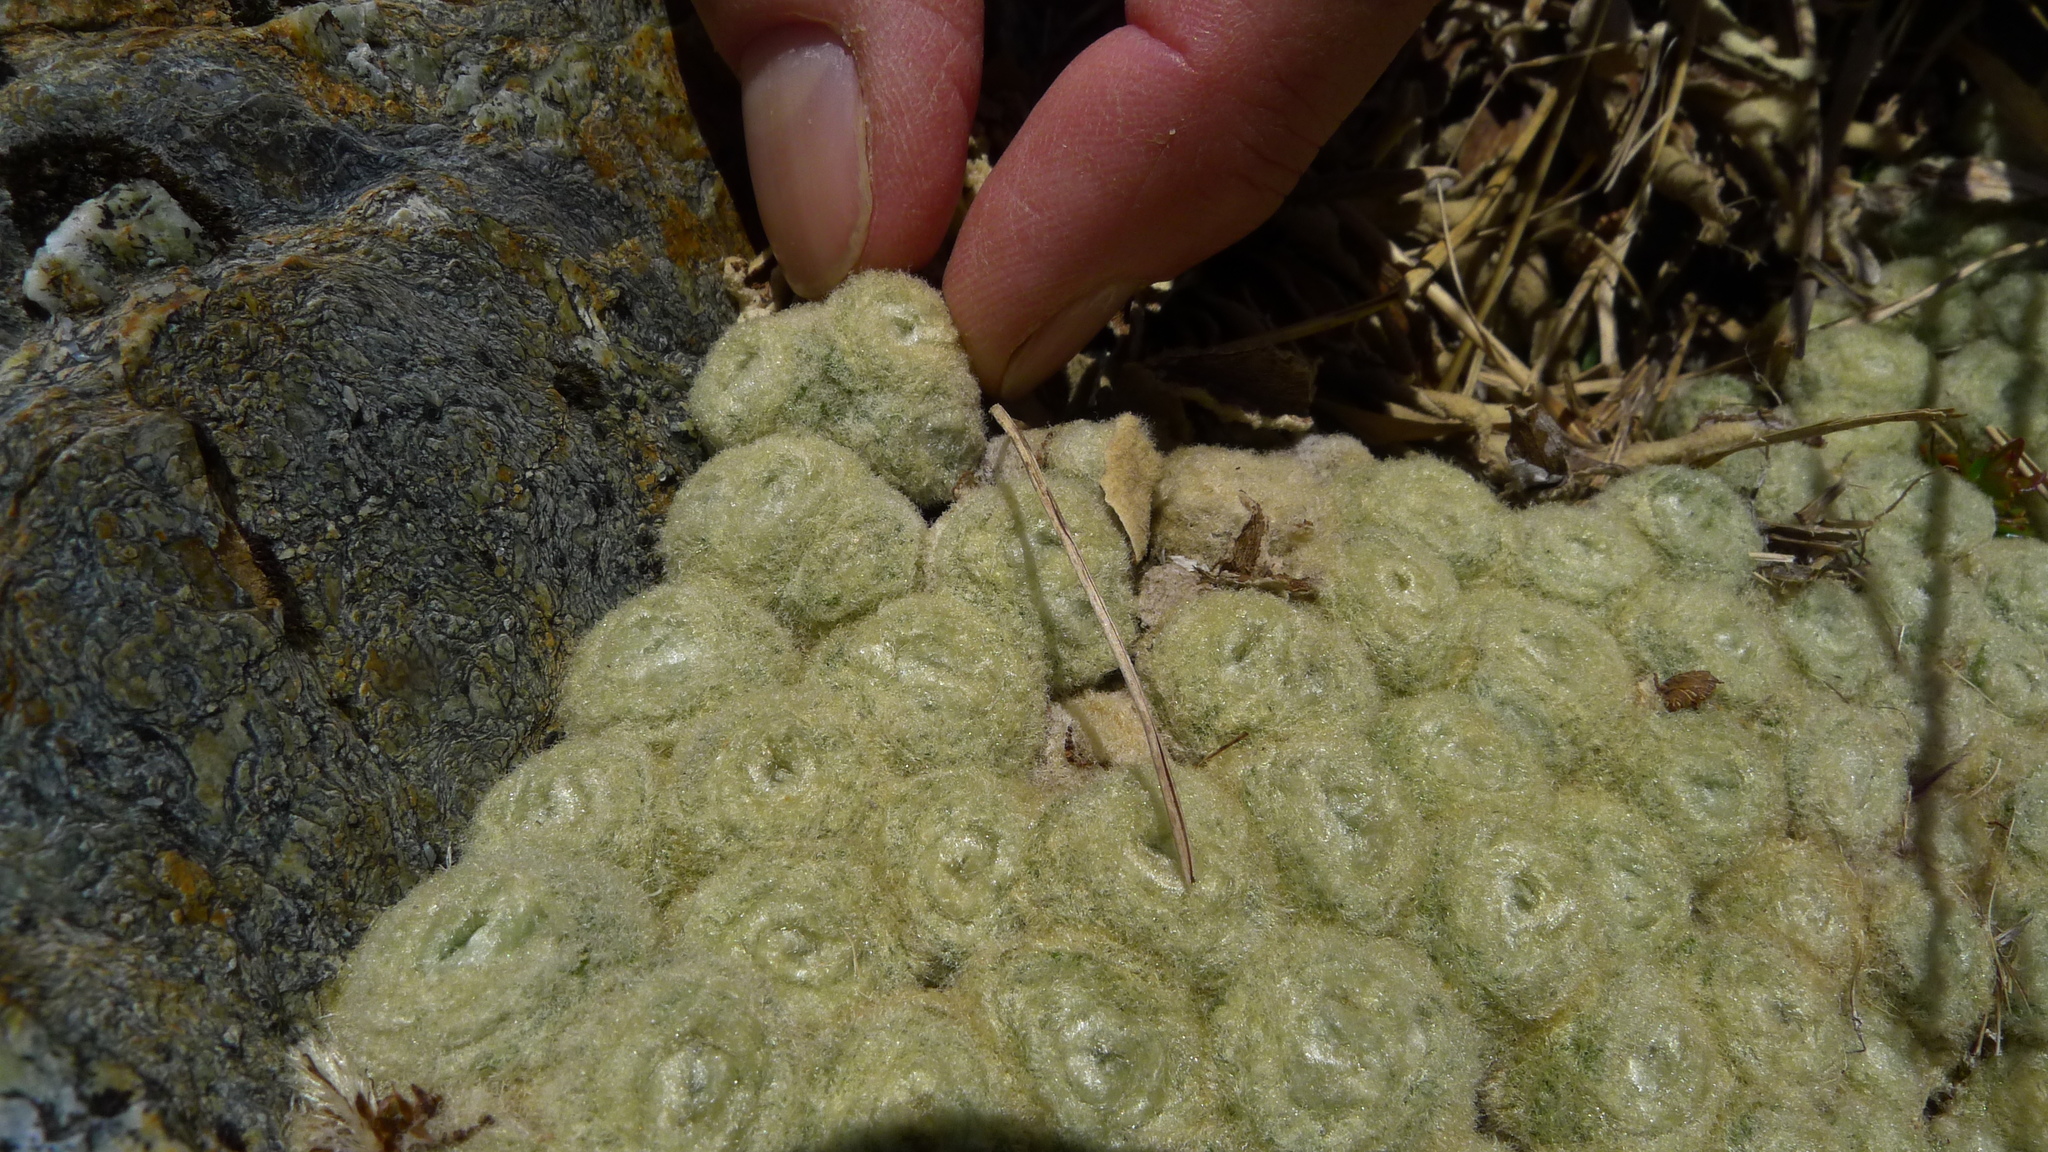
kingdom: Plantae
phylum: Tracheophyta
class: Magnoliopsida
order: Asterales
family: Asteraceae
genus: Haastia
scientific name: Haastia pulvinaris
